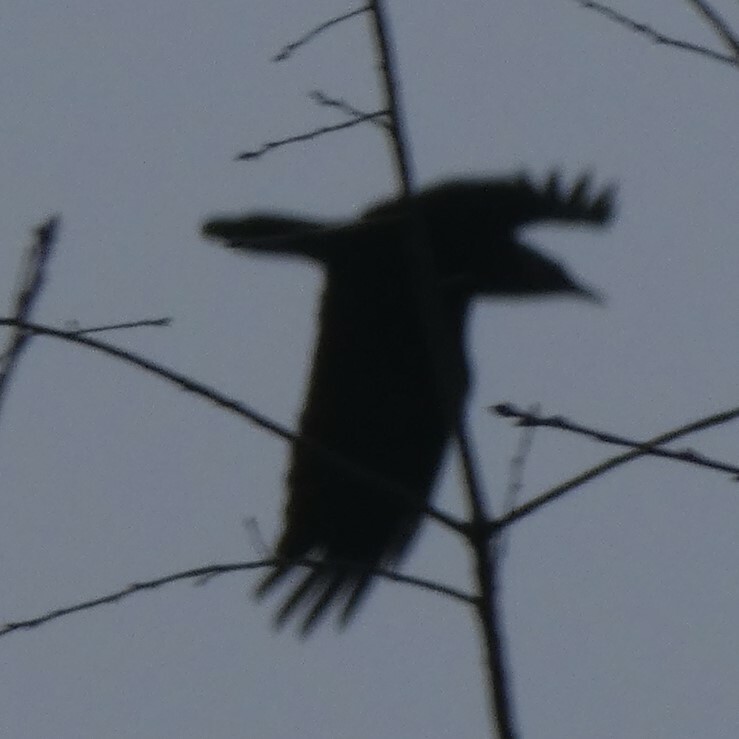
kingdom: Animalia
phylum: Chordata
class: Aves
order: Passeriformes
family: Corvidae
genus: Corvus
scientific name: Corvus corax
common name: Common raven
